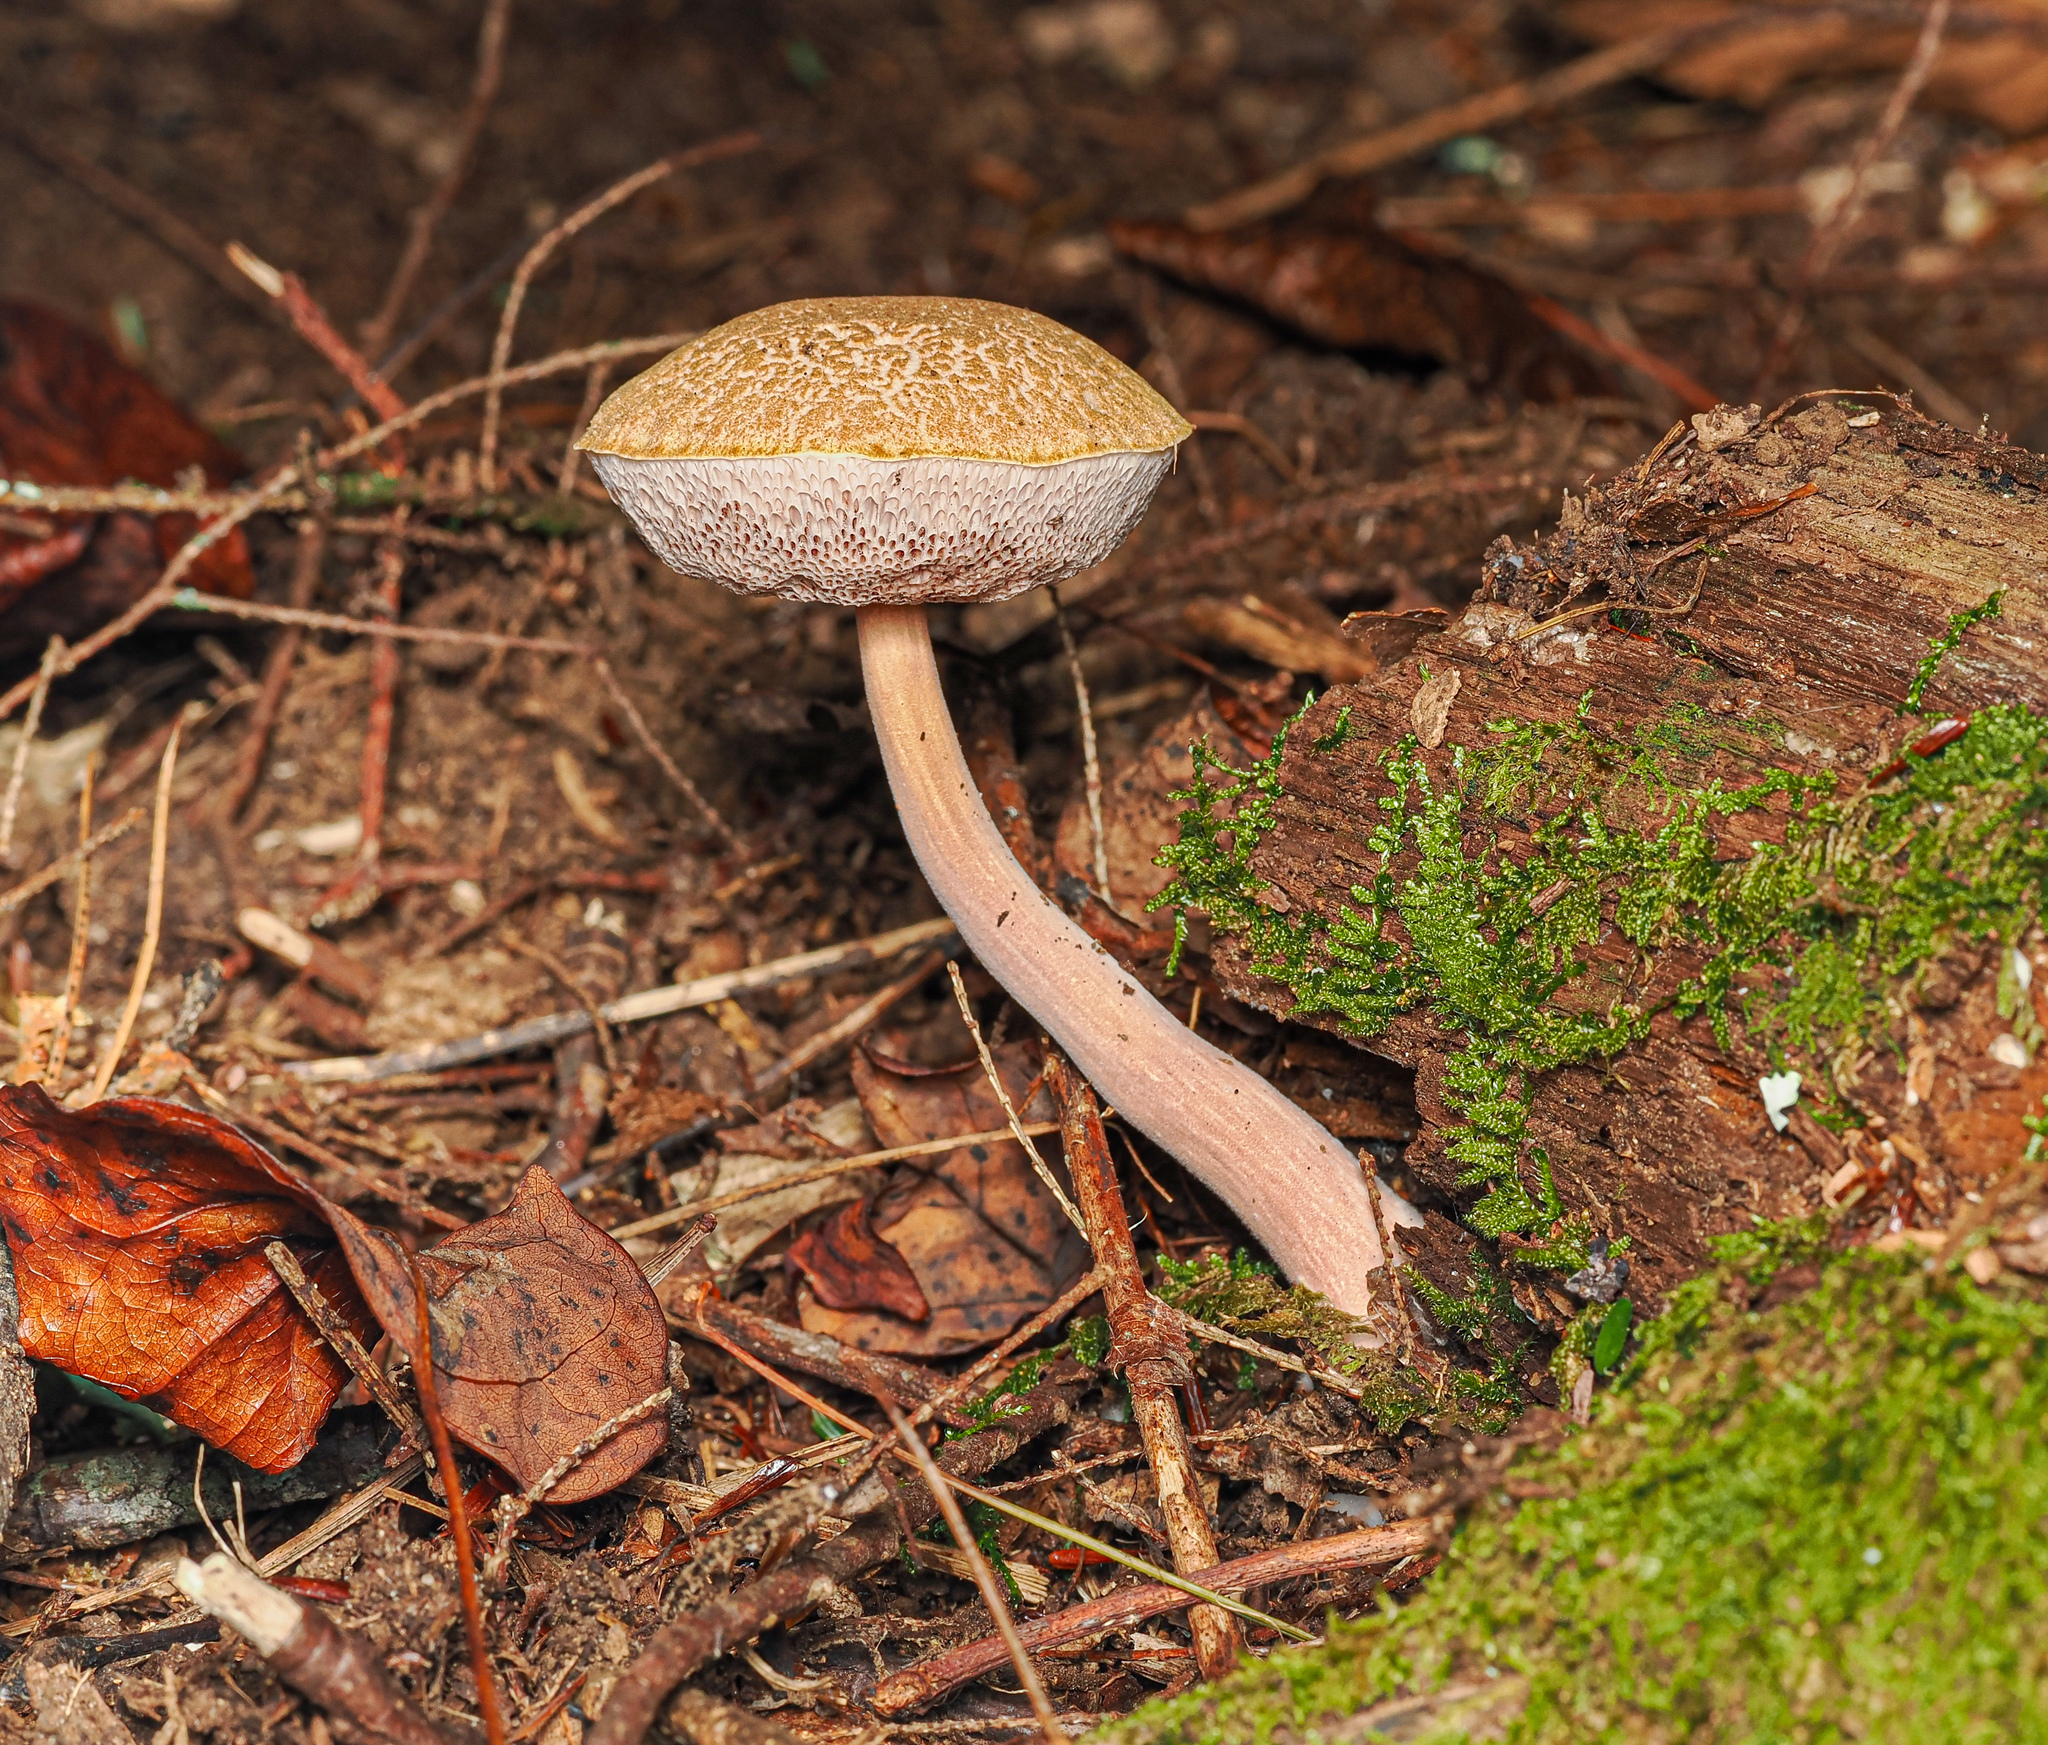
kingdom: Fungi
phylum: Basidiomycota
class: Agaricomycetes
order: Boletales
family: Boletaceae
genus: Austroboletus
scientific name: Austroboletus gracilis
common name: Graceful bolete
